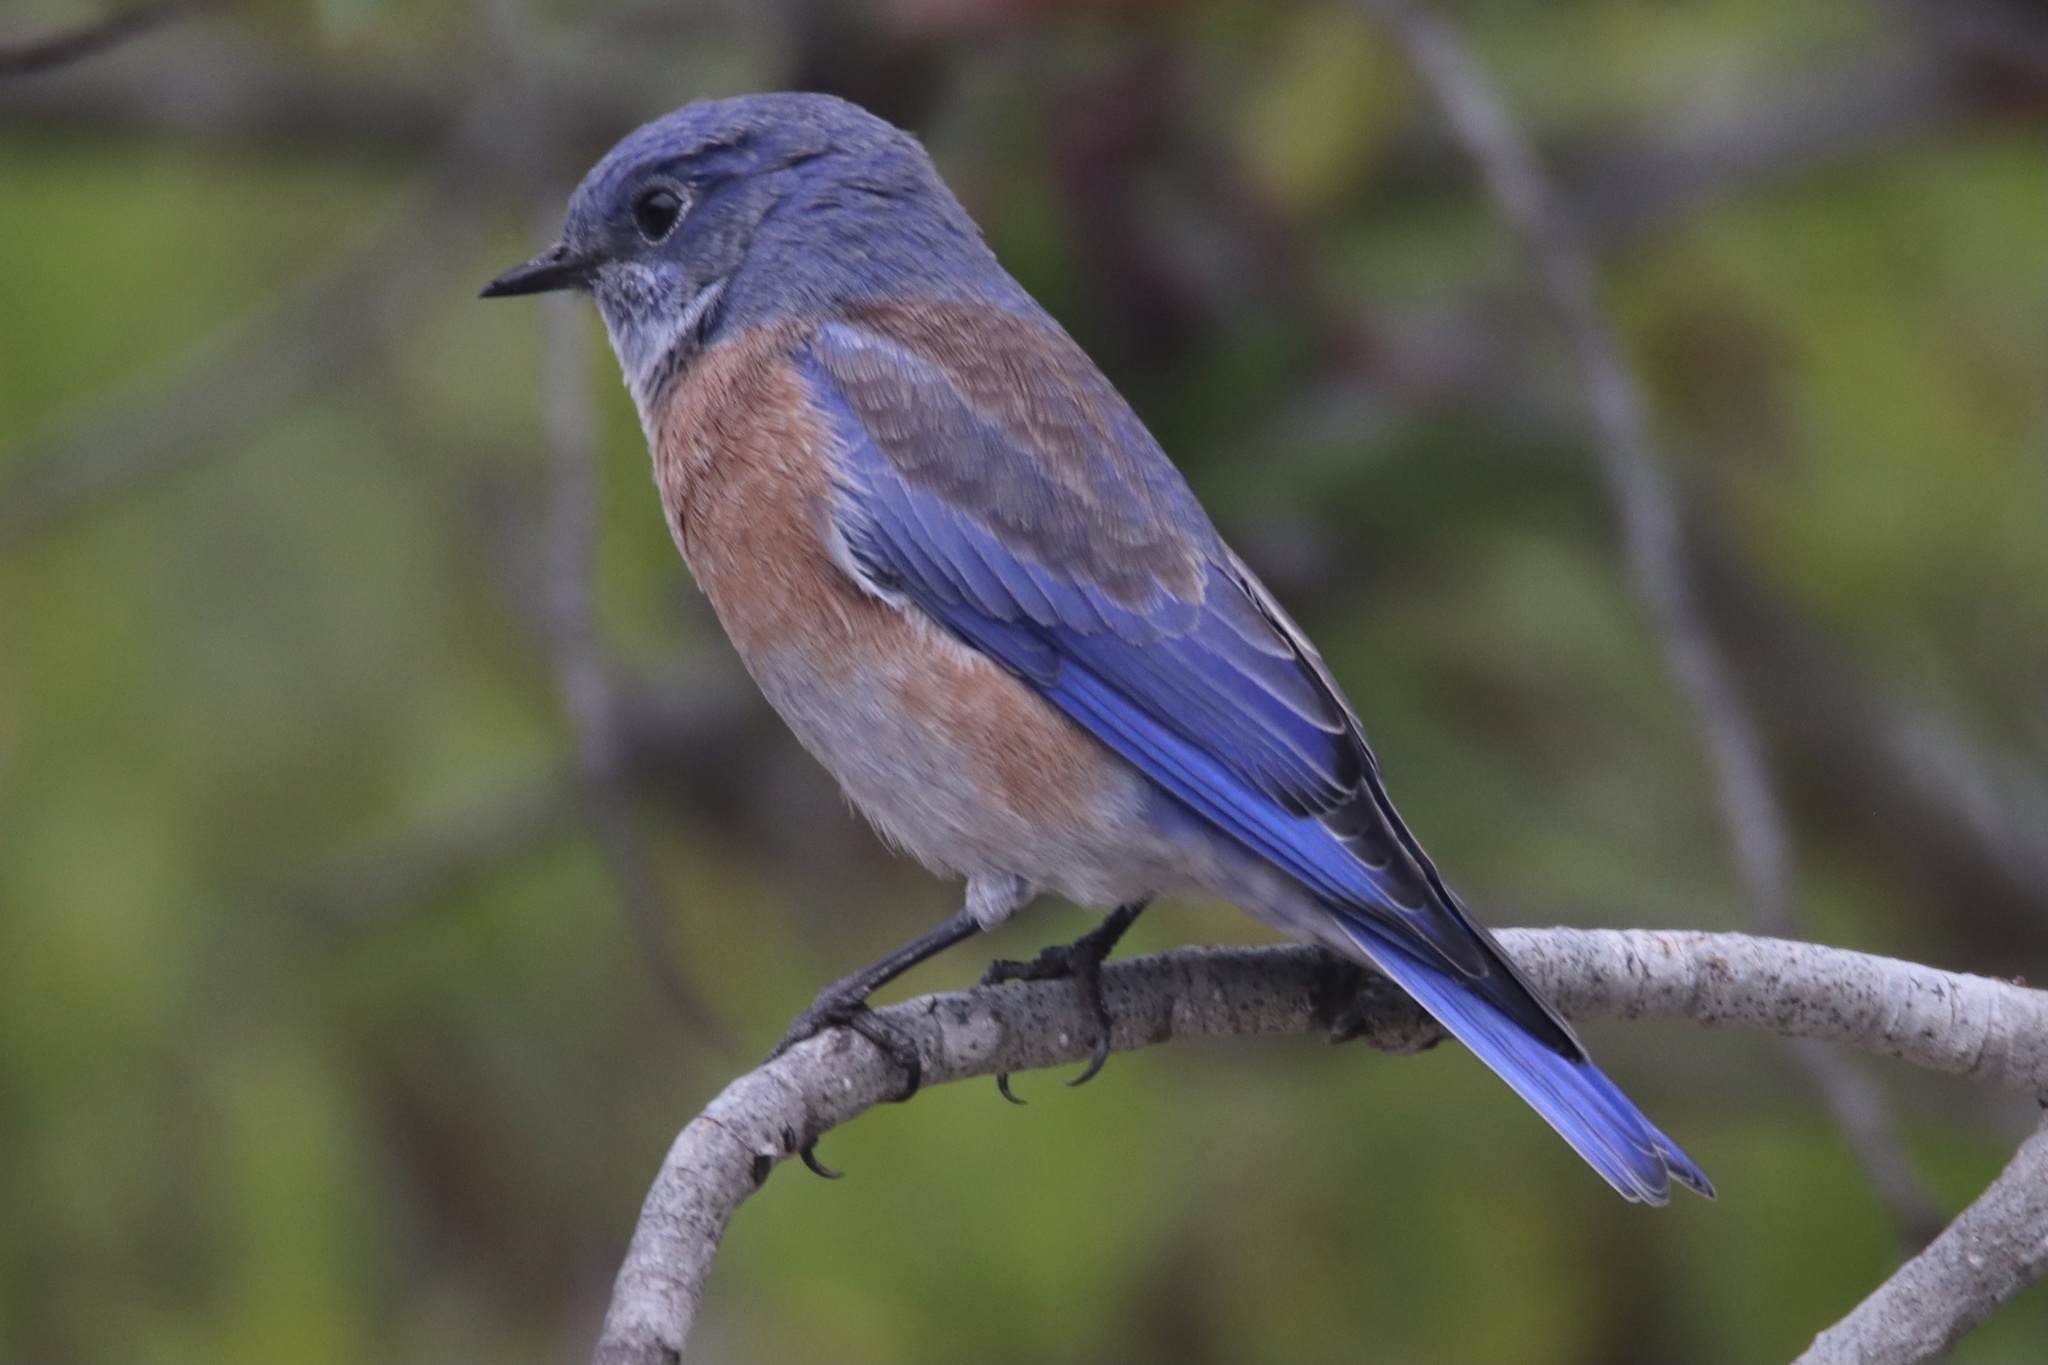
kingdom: Animalia
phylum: Chordata
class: Aves
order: Passeriformes
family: Turdidae
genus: Sialia
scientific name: Sialia mexicana
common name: Western bluebird
